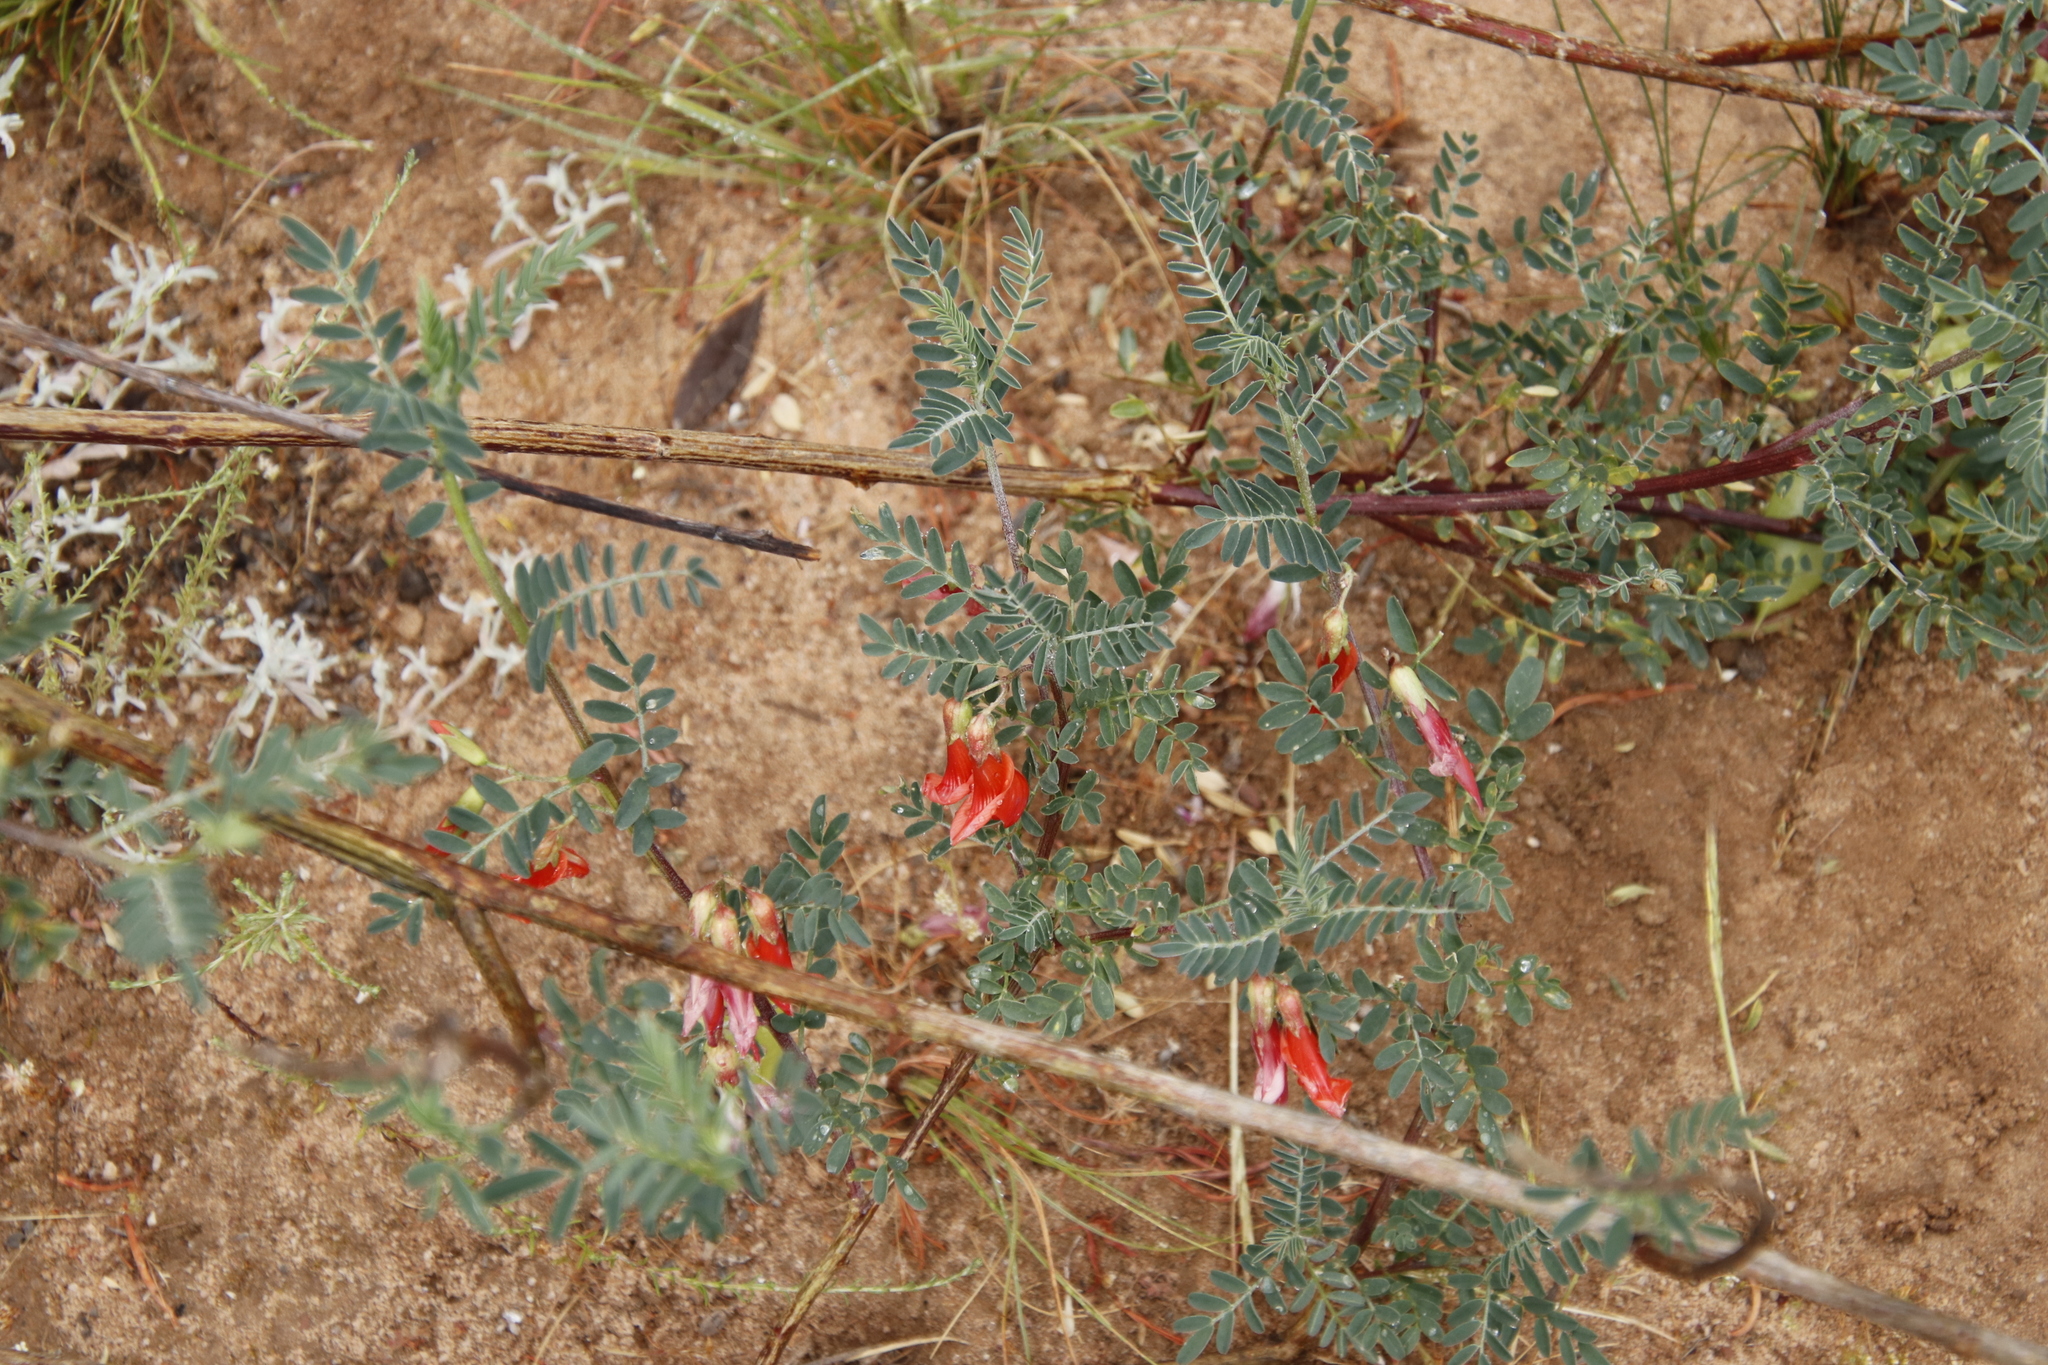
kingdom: Plantae
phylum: Tracheophyta
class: Magnoliopsida
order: Fabales
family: Fabaceae
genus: Lessertia
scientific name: Lessertia frutescens
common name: Balloon-pea
